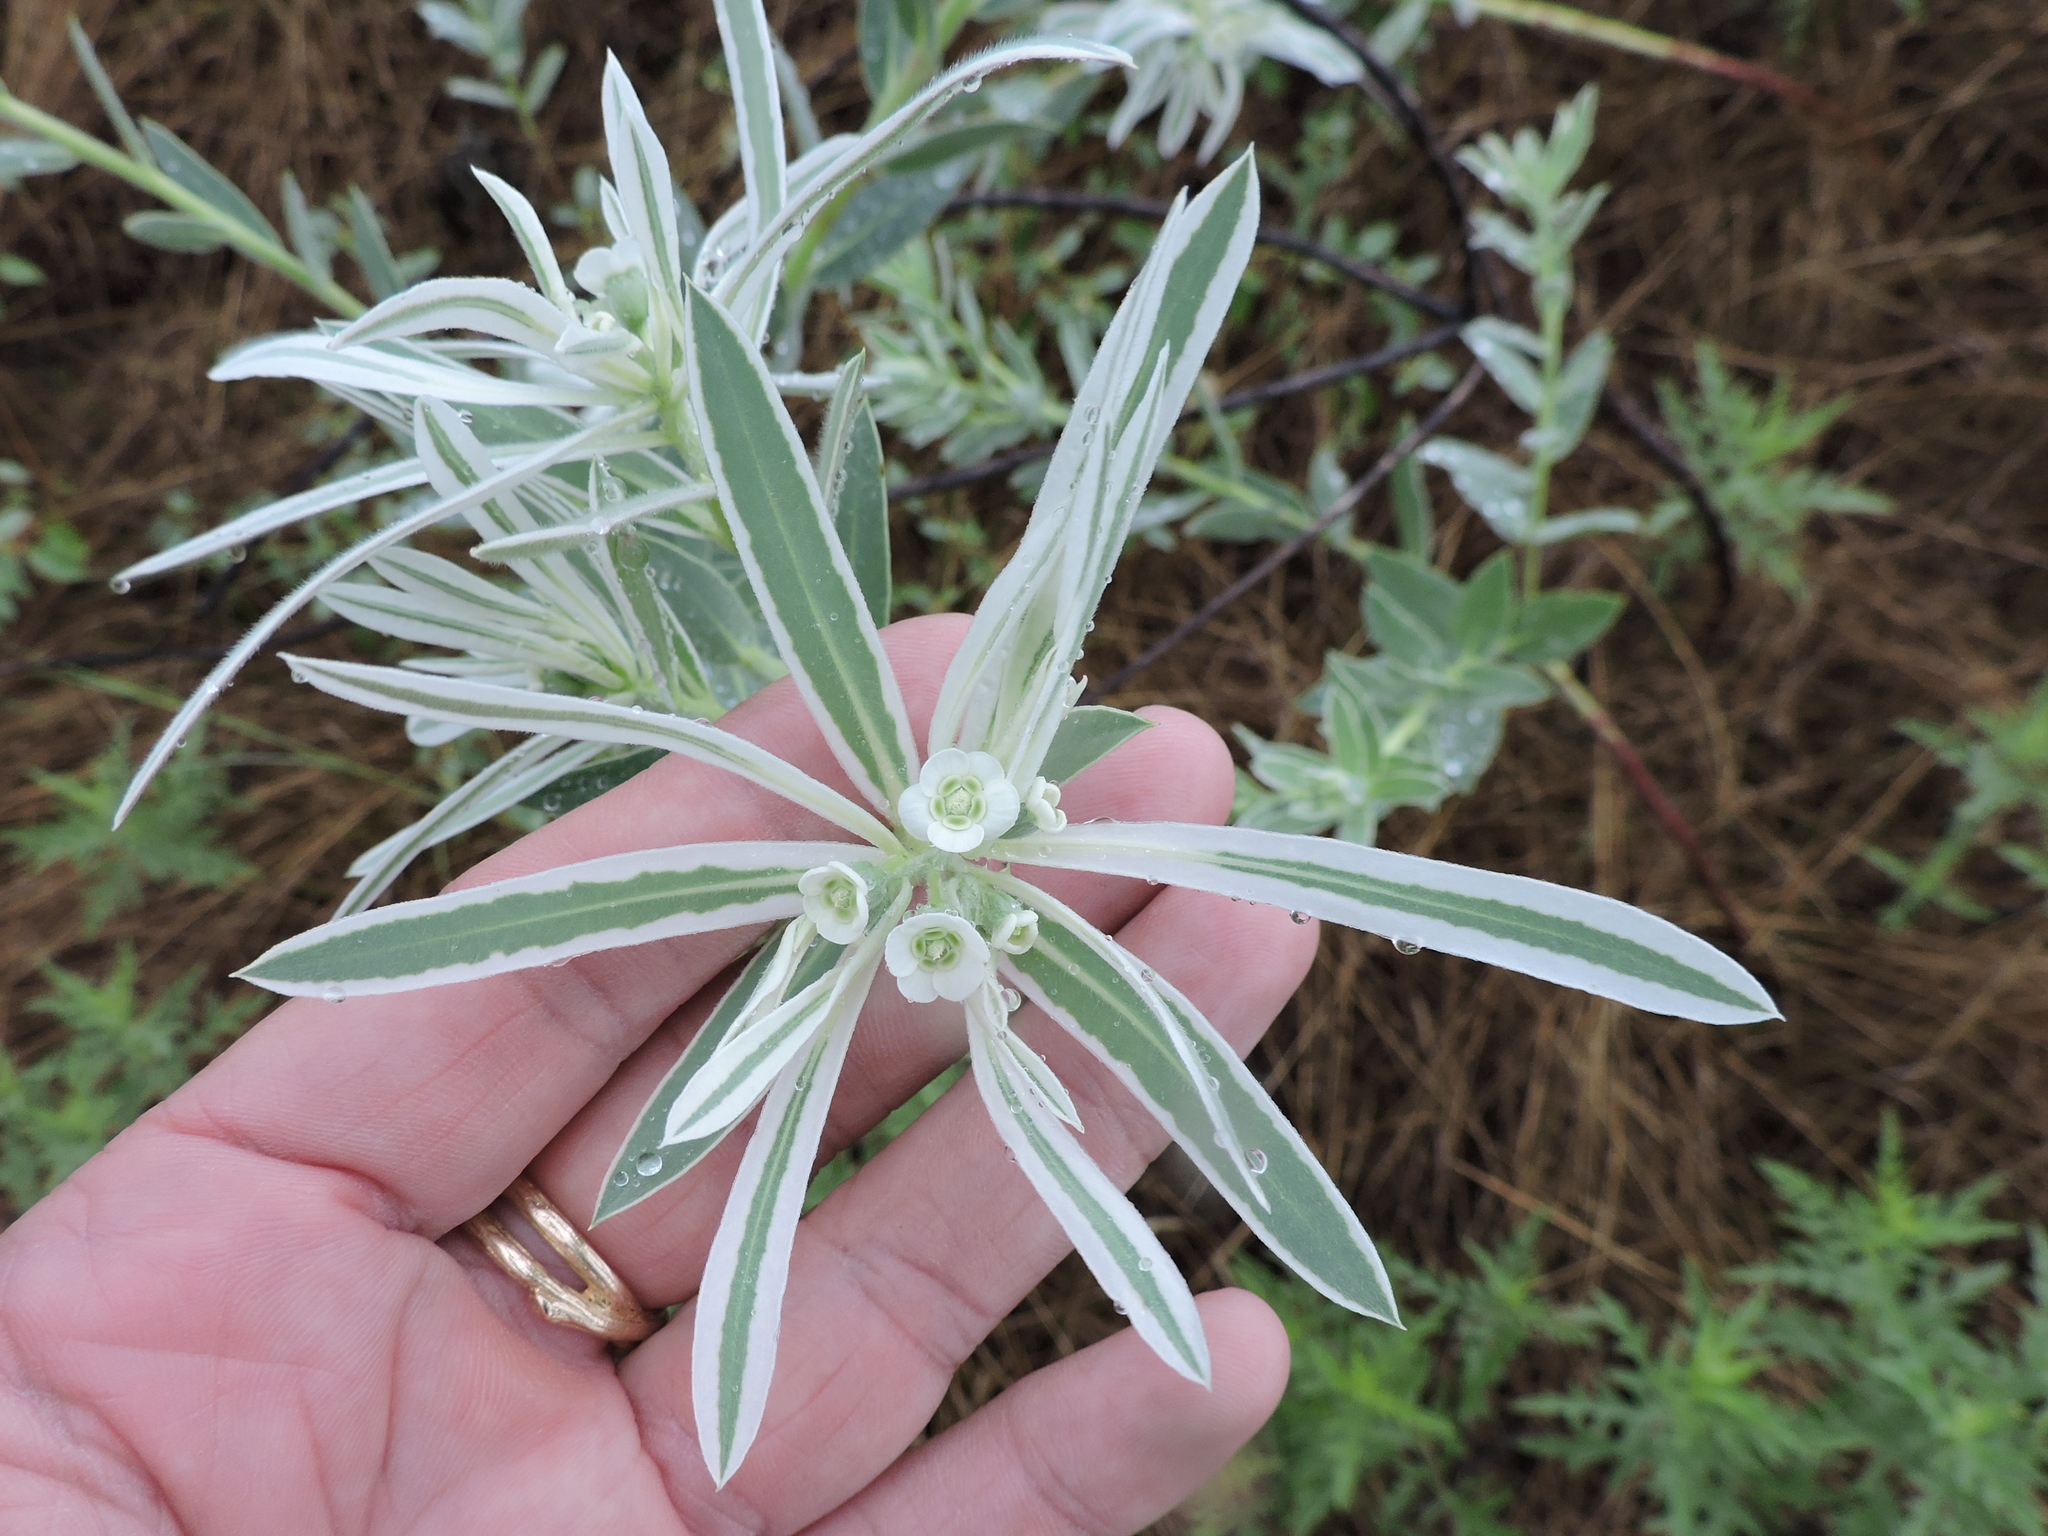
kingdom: Plantae
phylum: Tracheophyta
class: Magnoliopsida
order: Malpighiales
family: Euphorbiaceae
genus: Euphorbia
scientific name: Euphorbia bicolor
